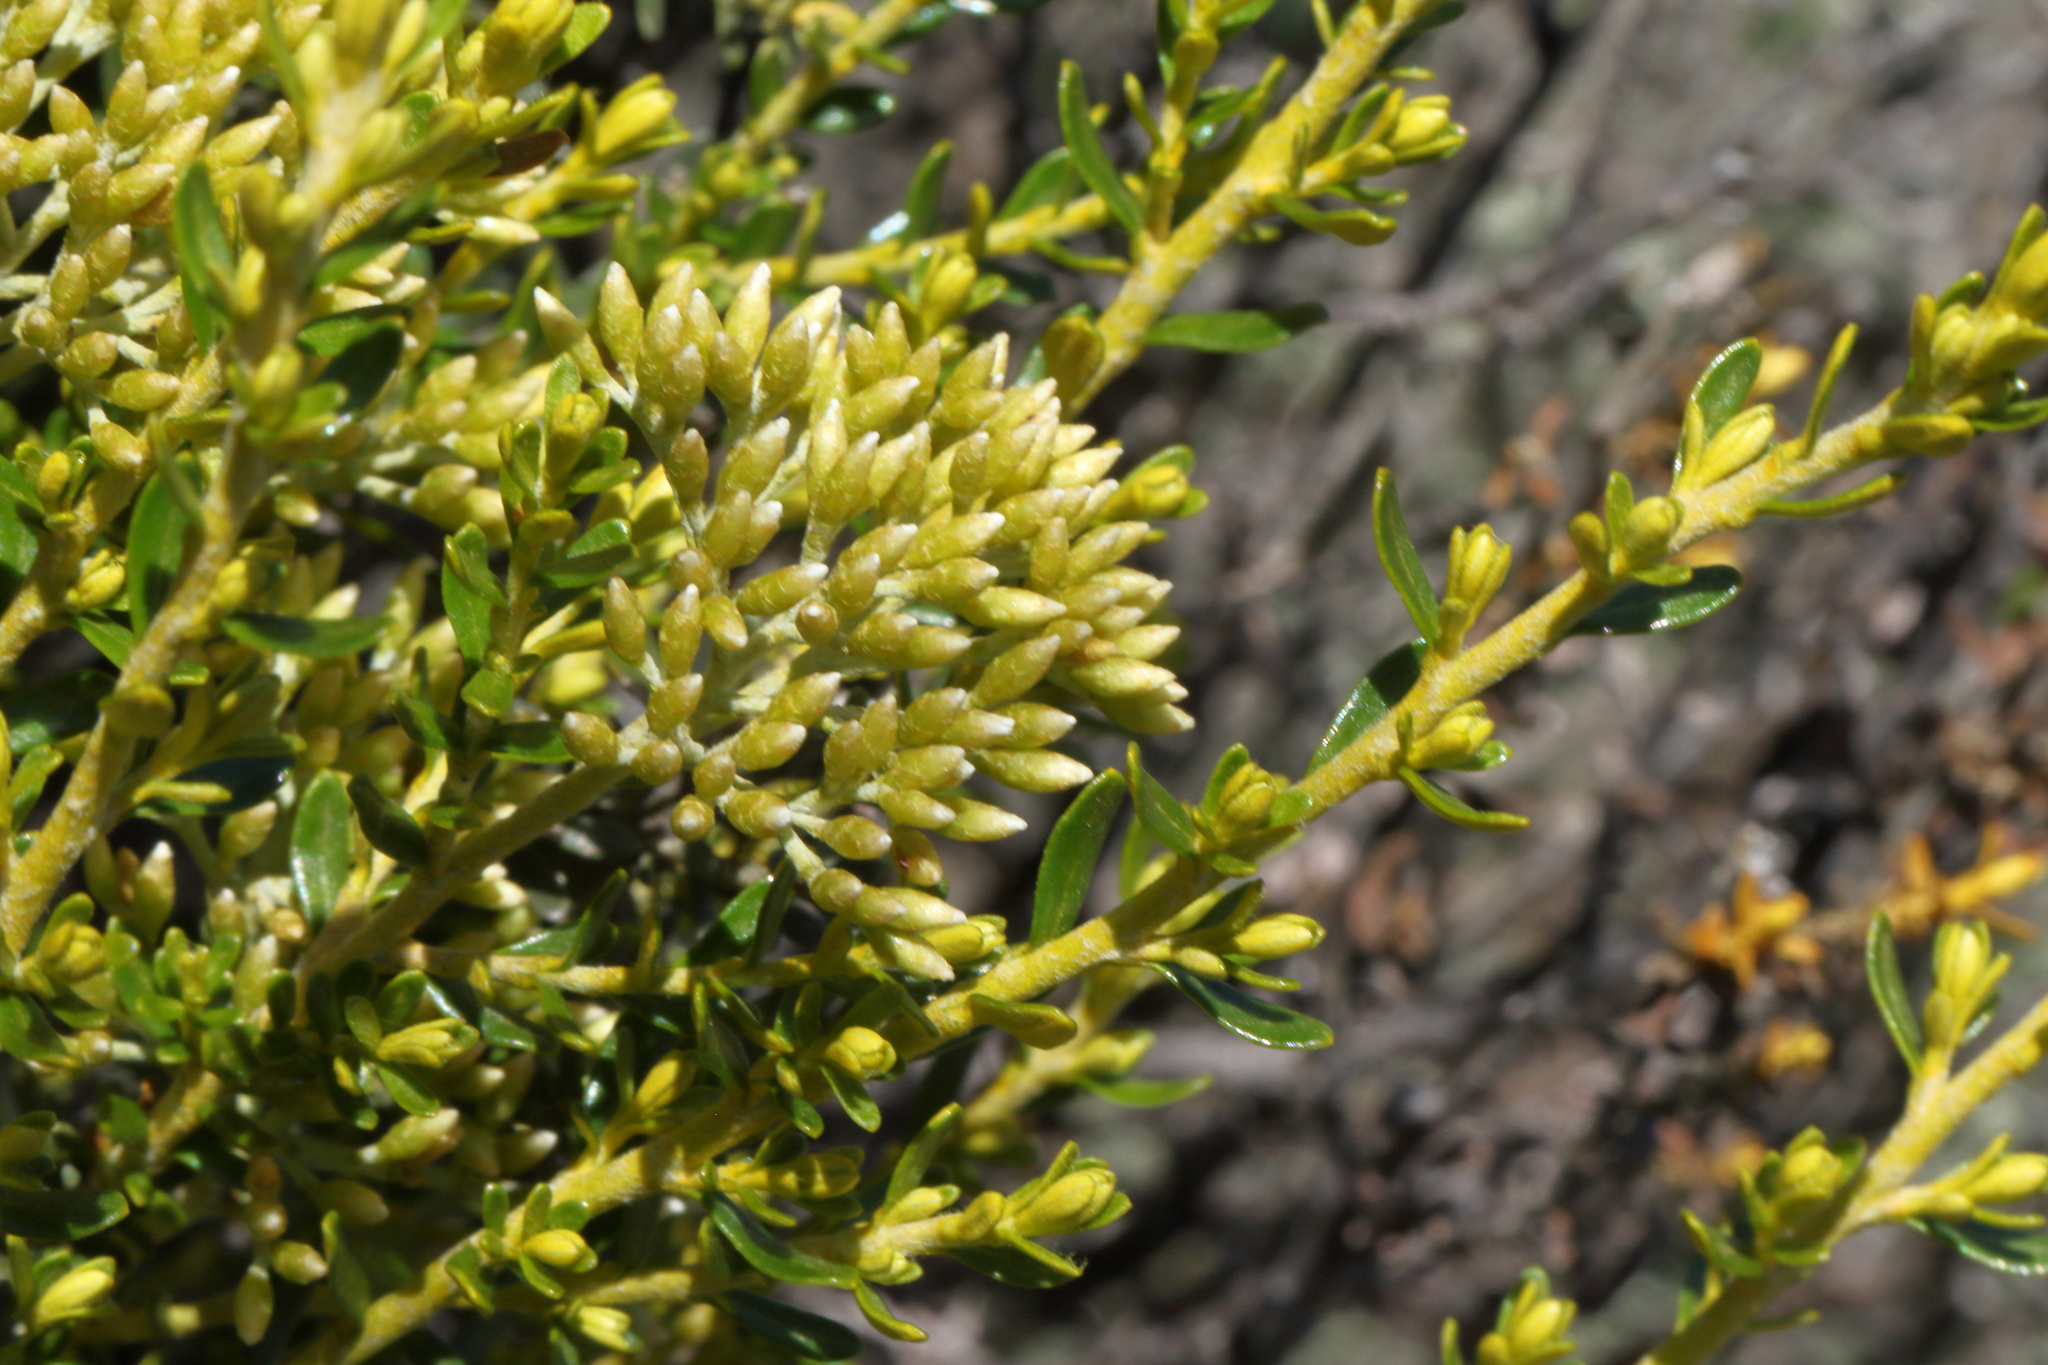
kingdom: Plantae
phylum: Tracheophyta
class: Magnoliopsida
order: Asterales
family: Asteraceae
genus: Ozothamnus
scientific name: Ozothamnus leptophyllus
